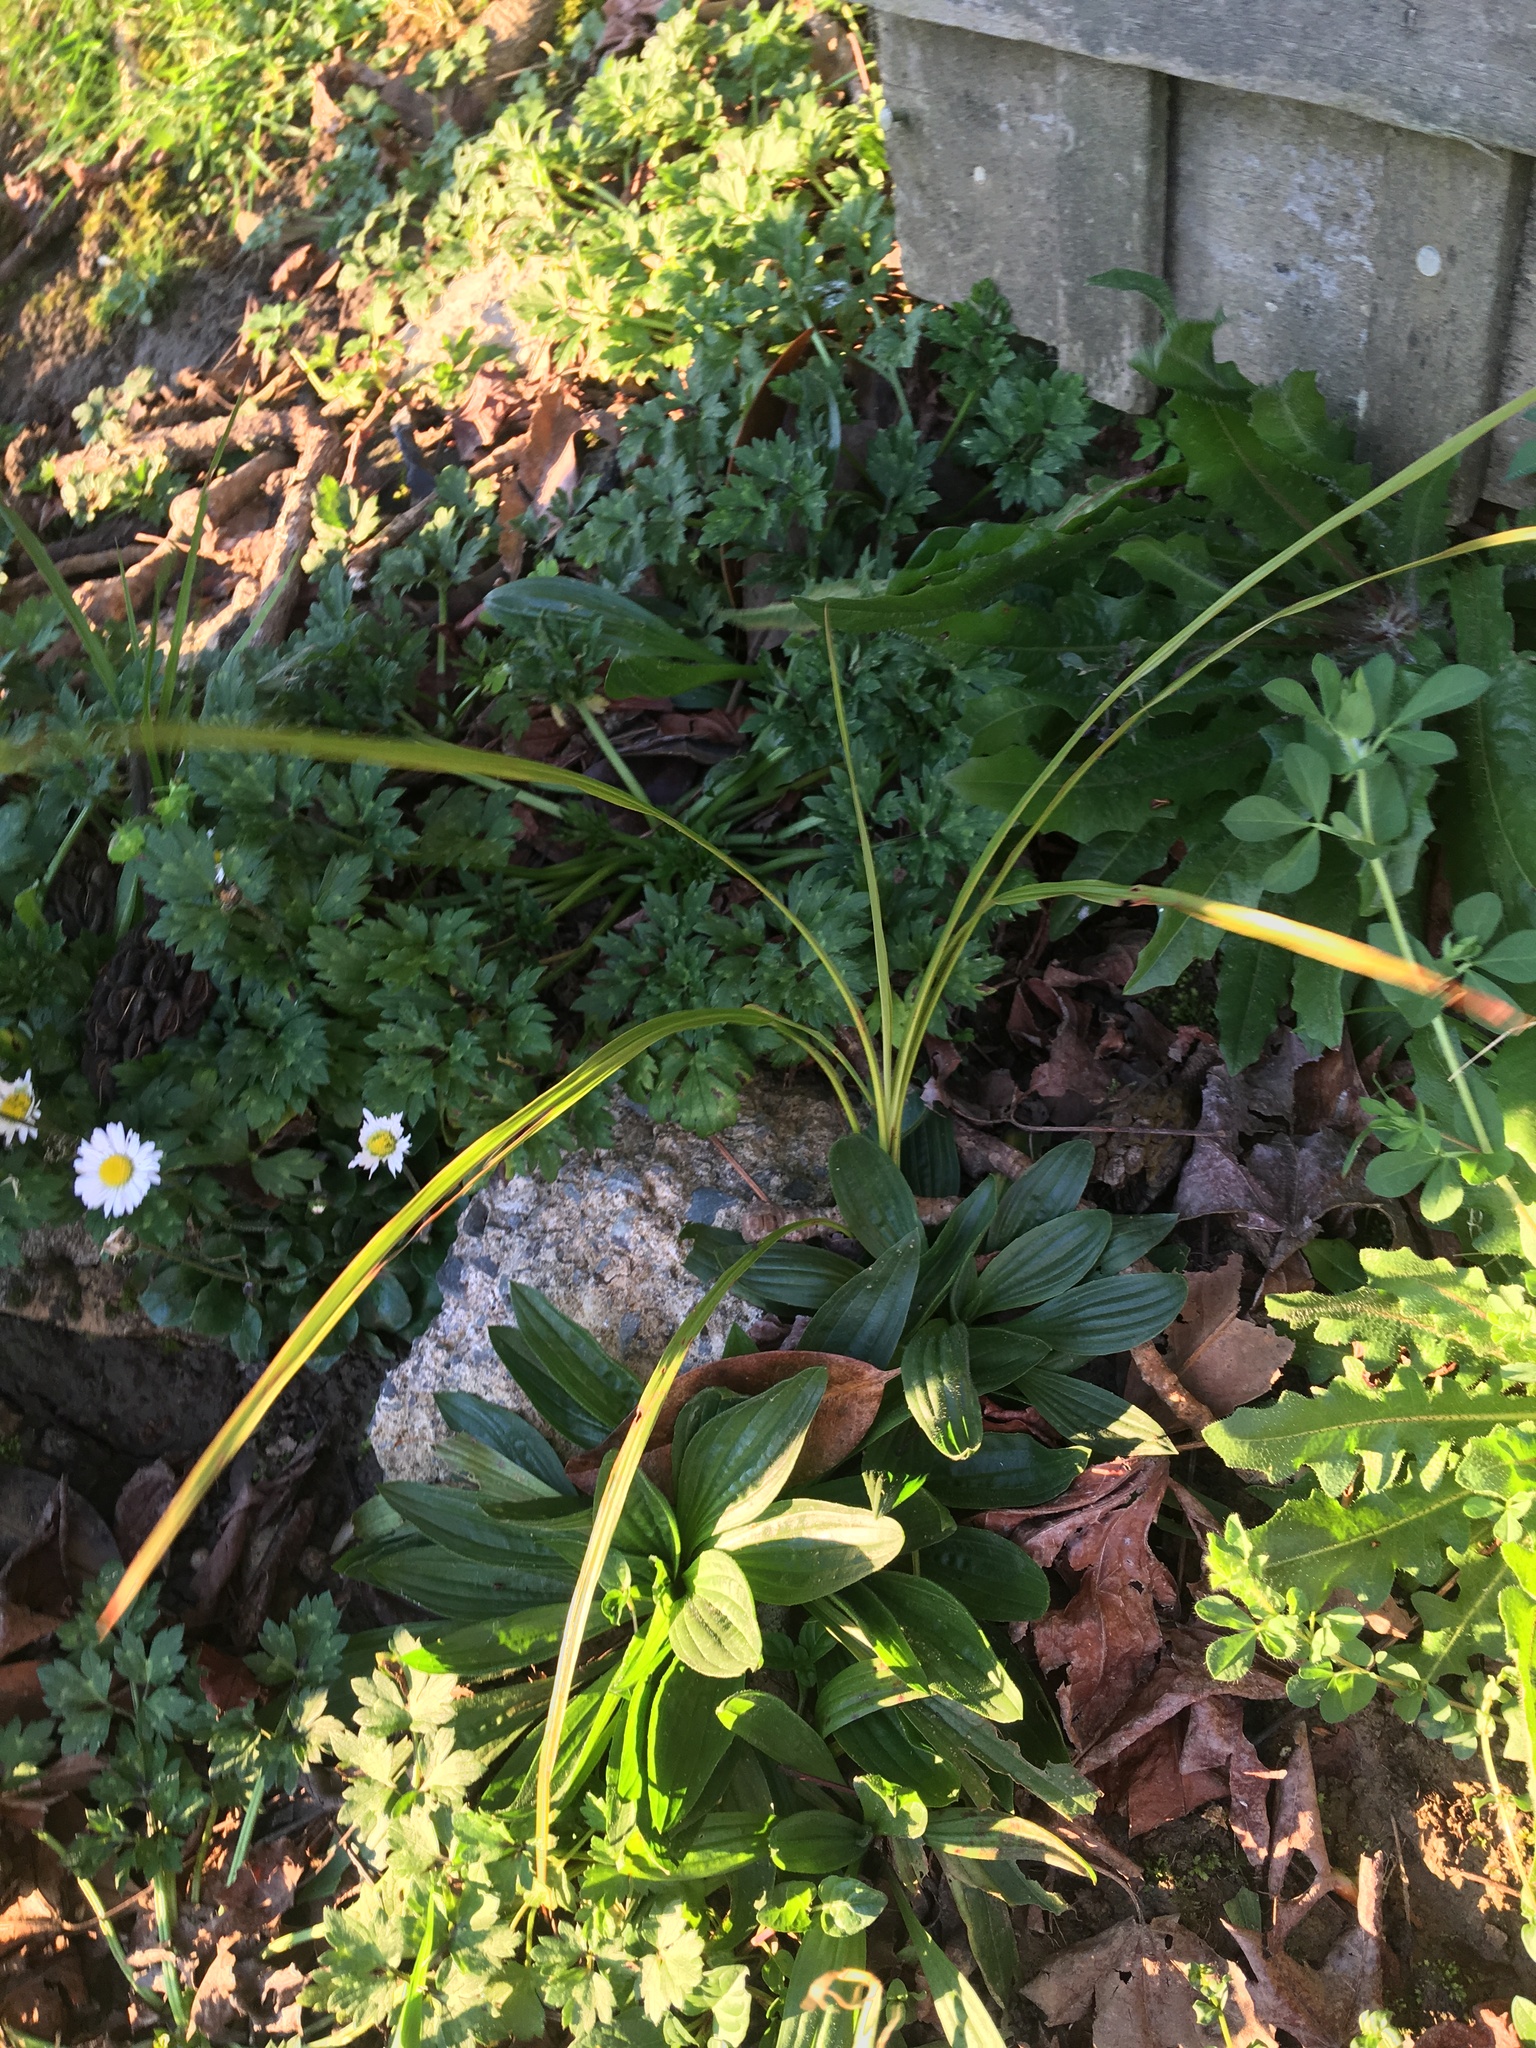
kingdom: Plantae
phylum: Tracheophyta
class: Liliopsida
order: Asparagales
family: Asparagaceae
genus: Cordyline
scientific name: Cordyline australis
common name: Cabbage-palm
